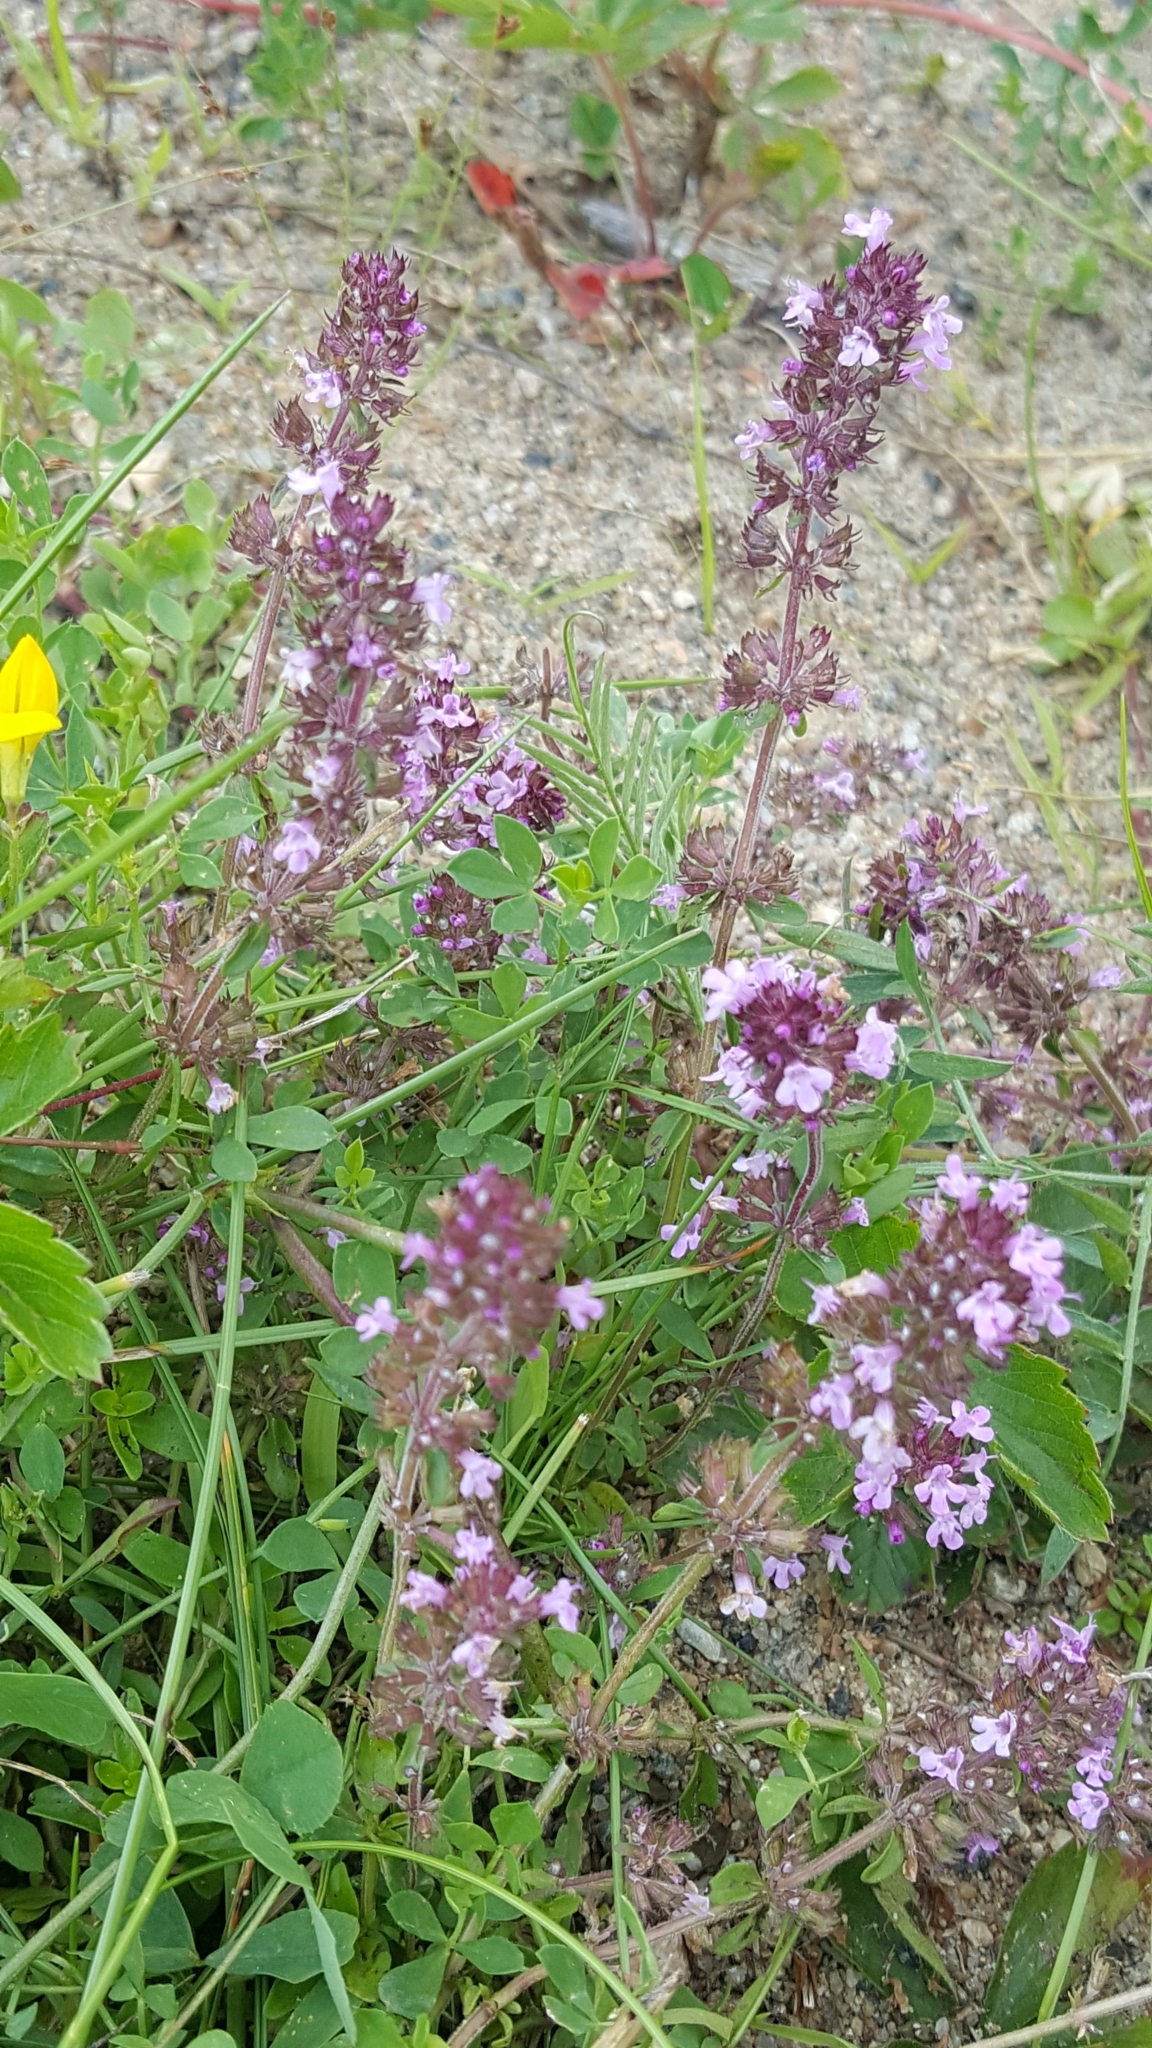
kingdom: Plantae
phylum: Tracheophyta
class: Magnoliopsida
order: Lamiales
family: Lamiaceae
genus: Thymus
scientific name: Thymus pulegioides
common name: Large thyme
